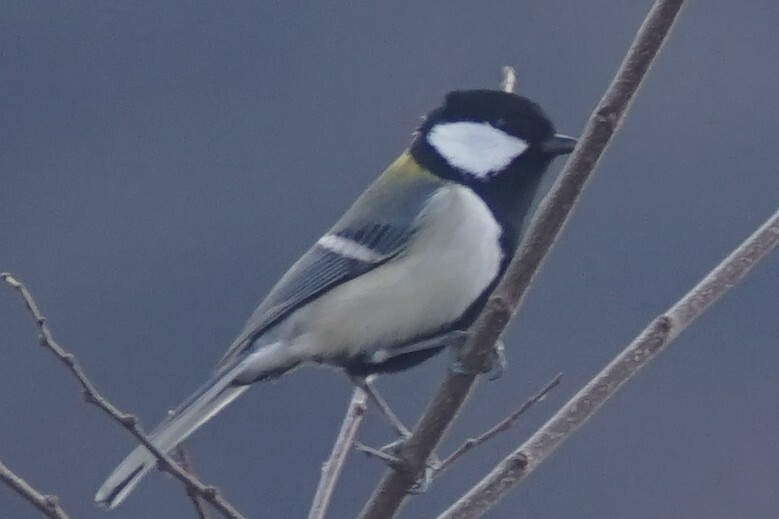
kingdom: Animalia
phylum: Chordata
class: Aves
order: Passeriformes
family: Paridae
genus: Parus
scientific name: Parus minor
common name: Japanese tit
